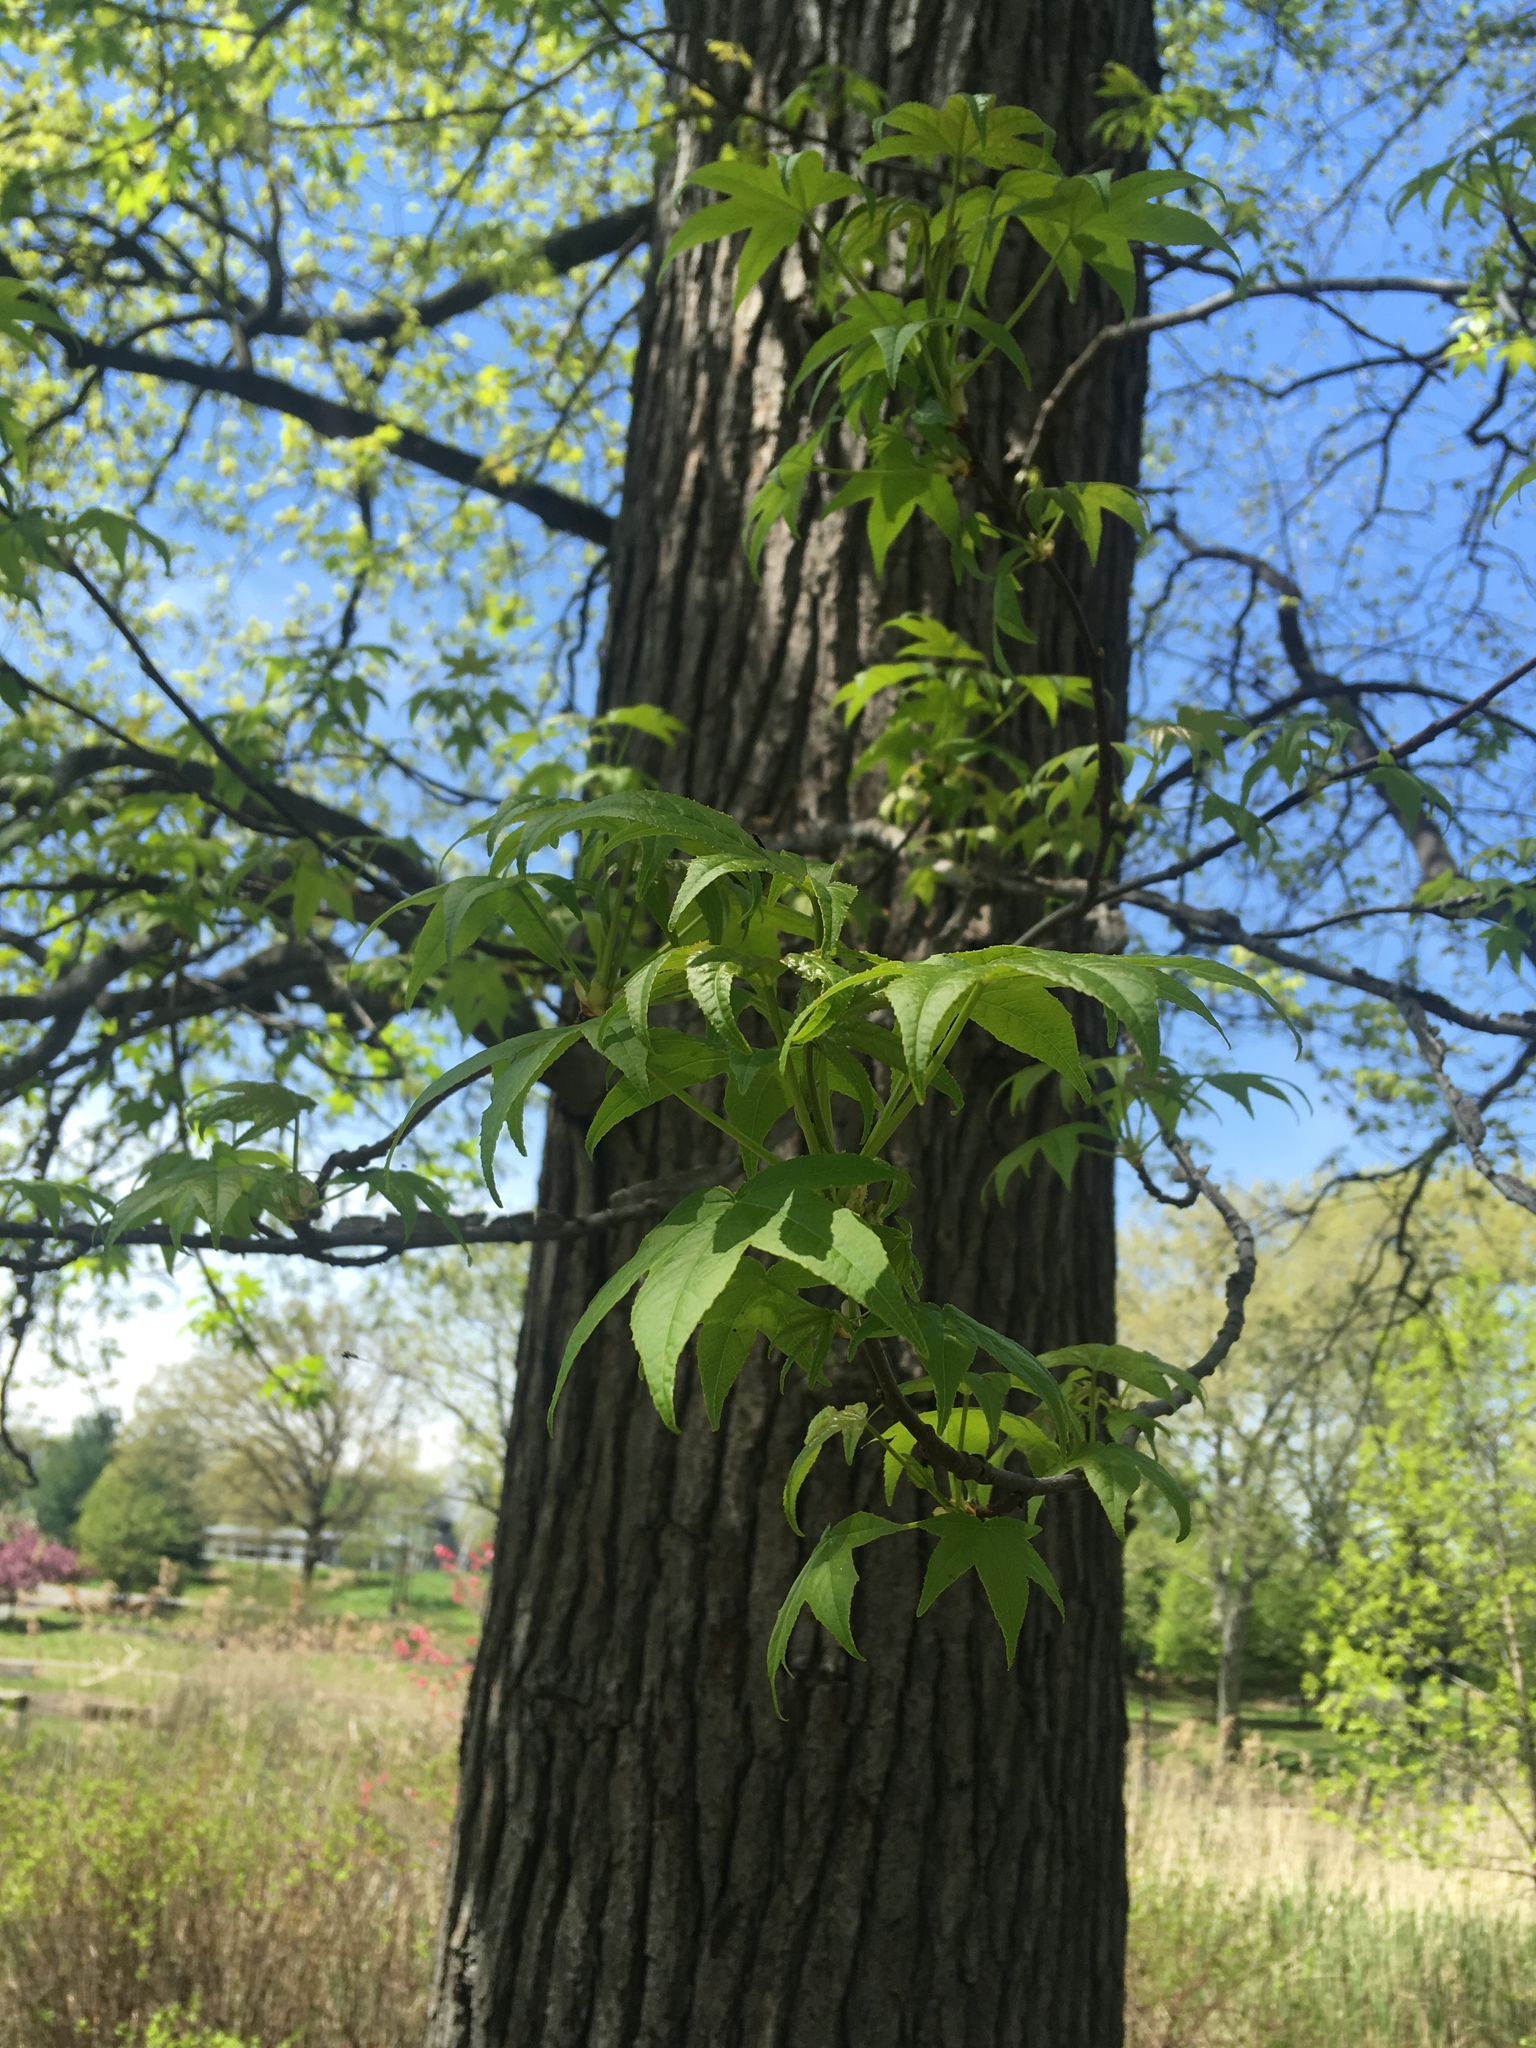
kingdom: Plantae
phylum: Tracheophyta
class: Magnoliopsida
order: Saxifragales
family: Altingiaceae
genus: Liquidambar
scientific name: Liquidambar styraciflua
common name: Sweet gum
